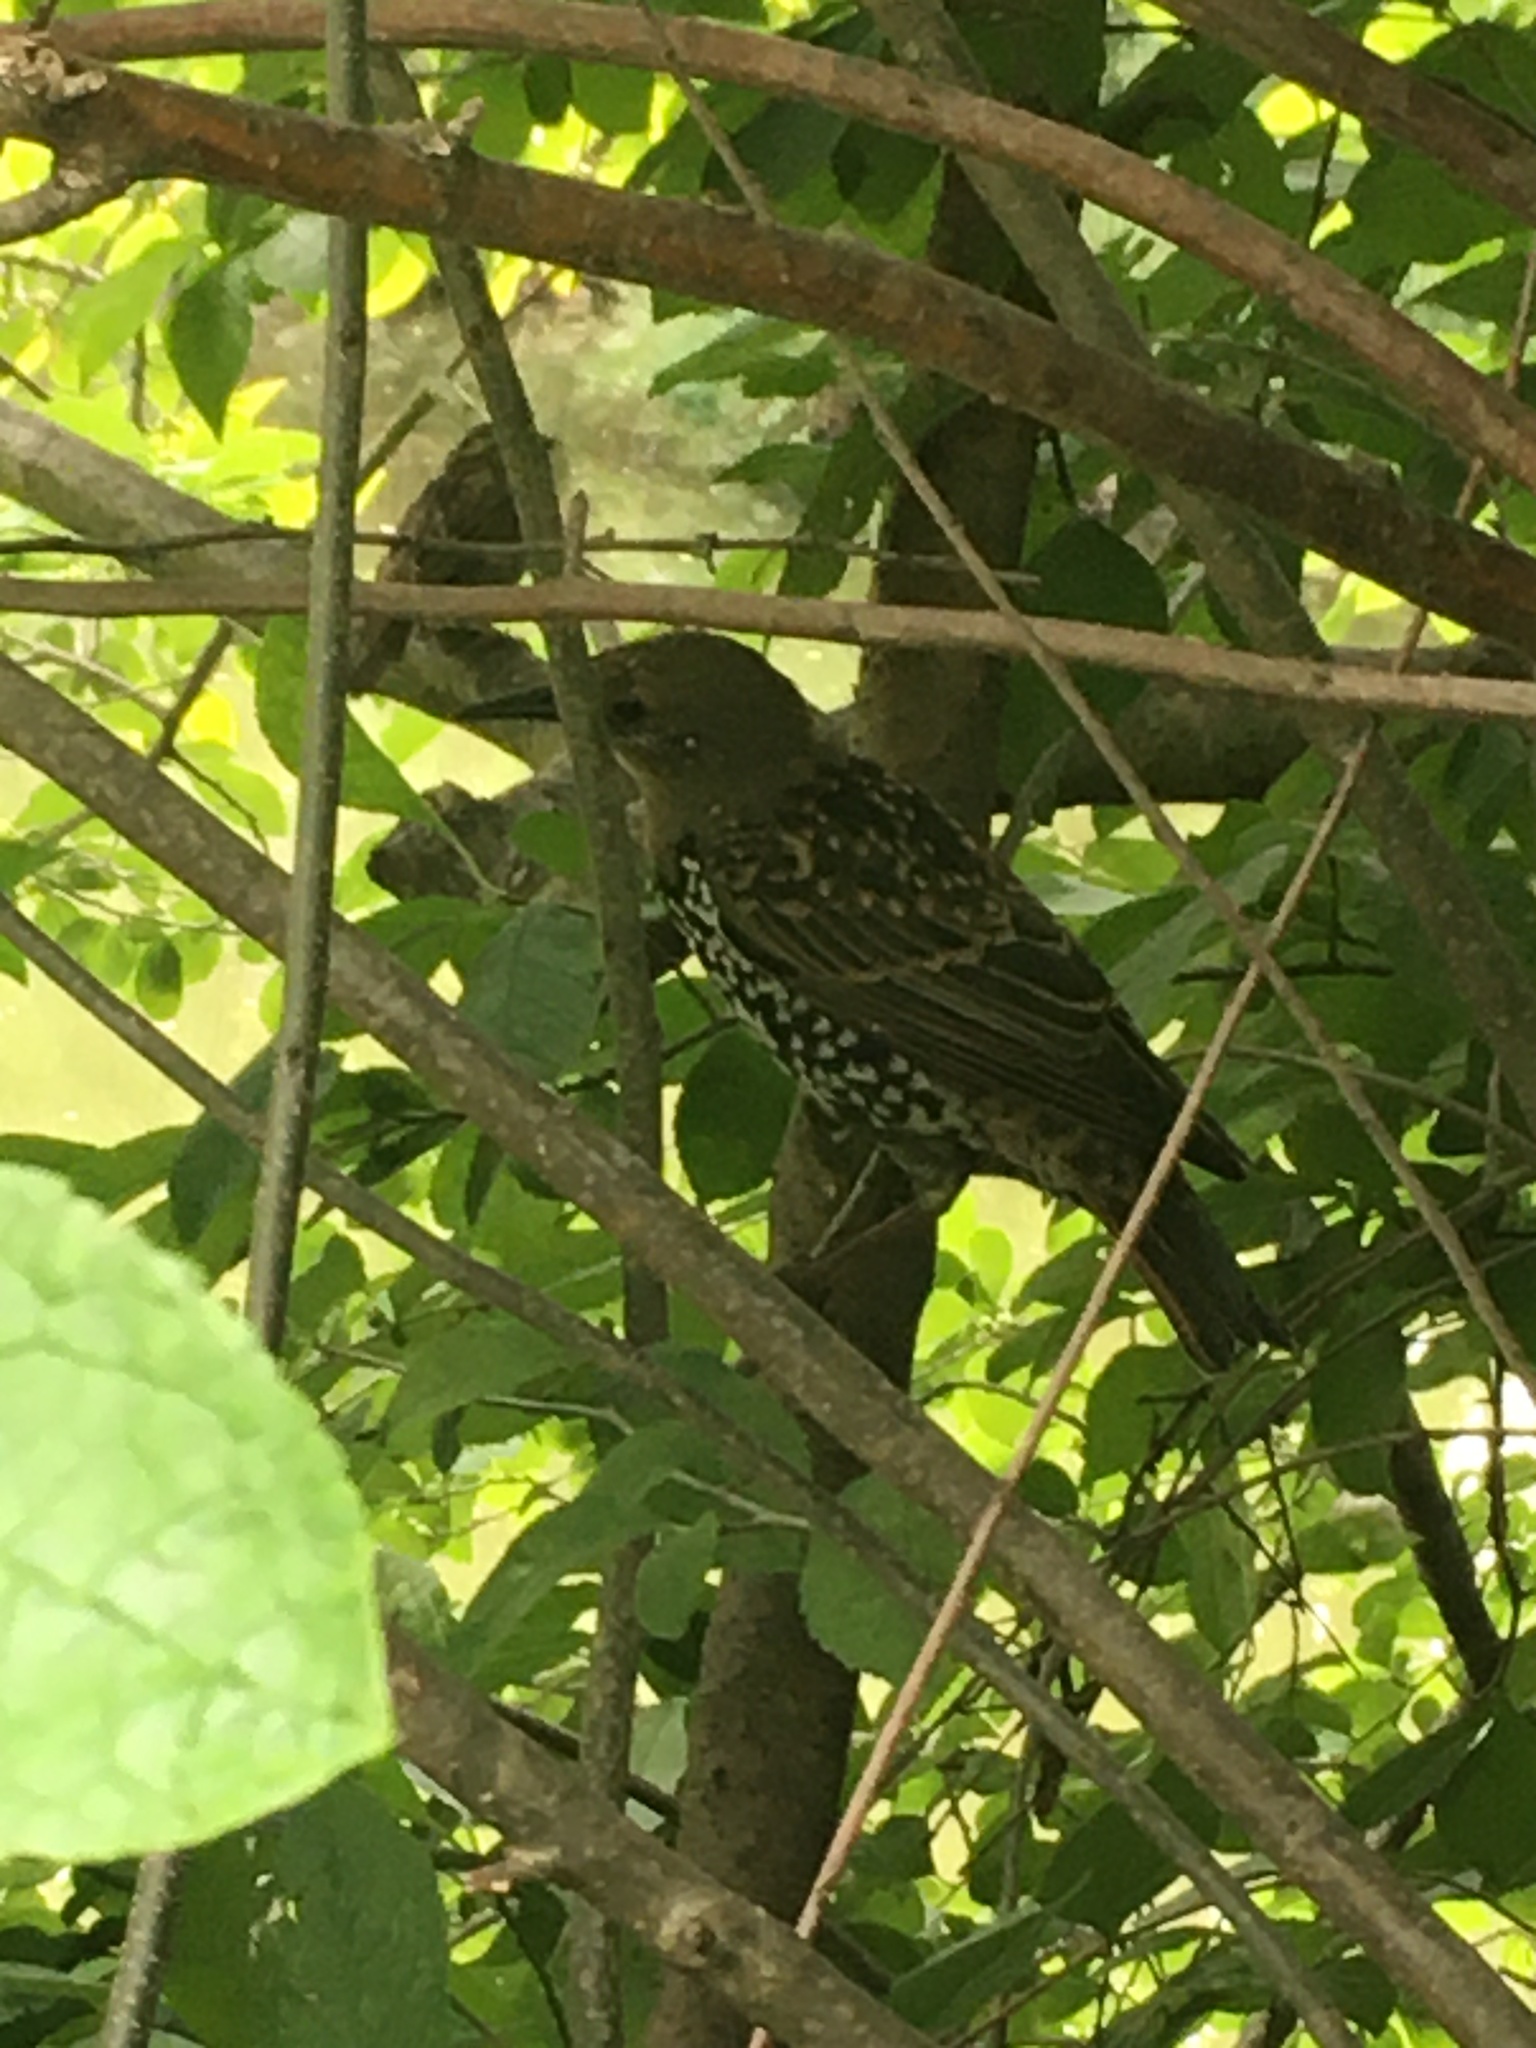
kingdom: Animalia
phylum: Chordata
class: Aves
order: Passeriformes
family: Sturnidae
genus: Sturnus
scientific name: Sturnus vulgaris
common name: Common starling
